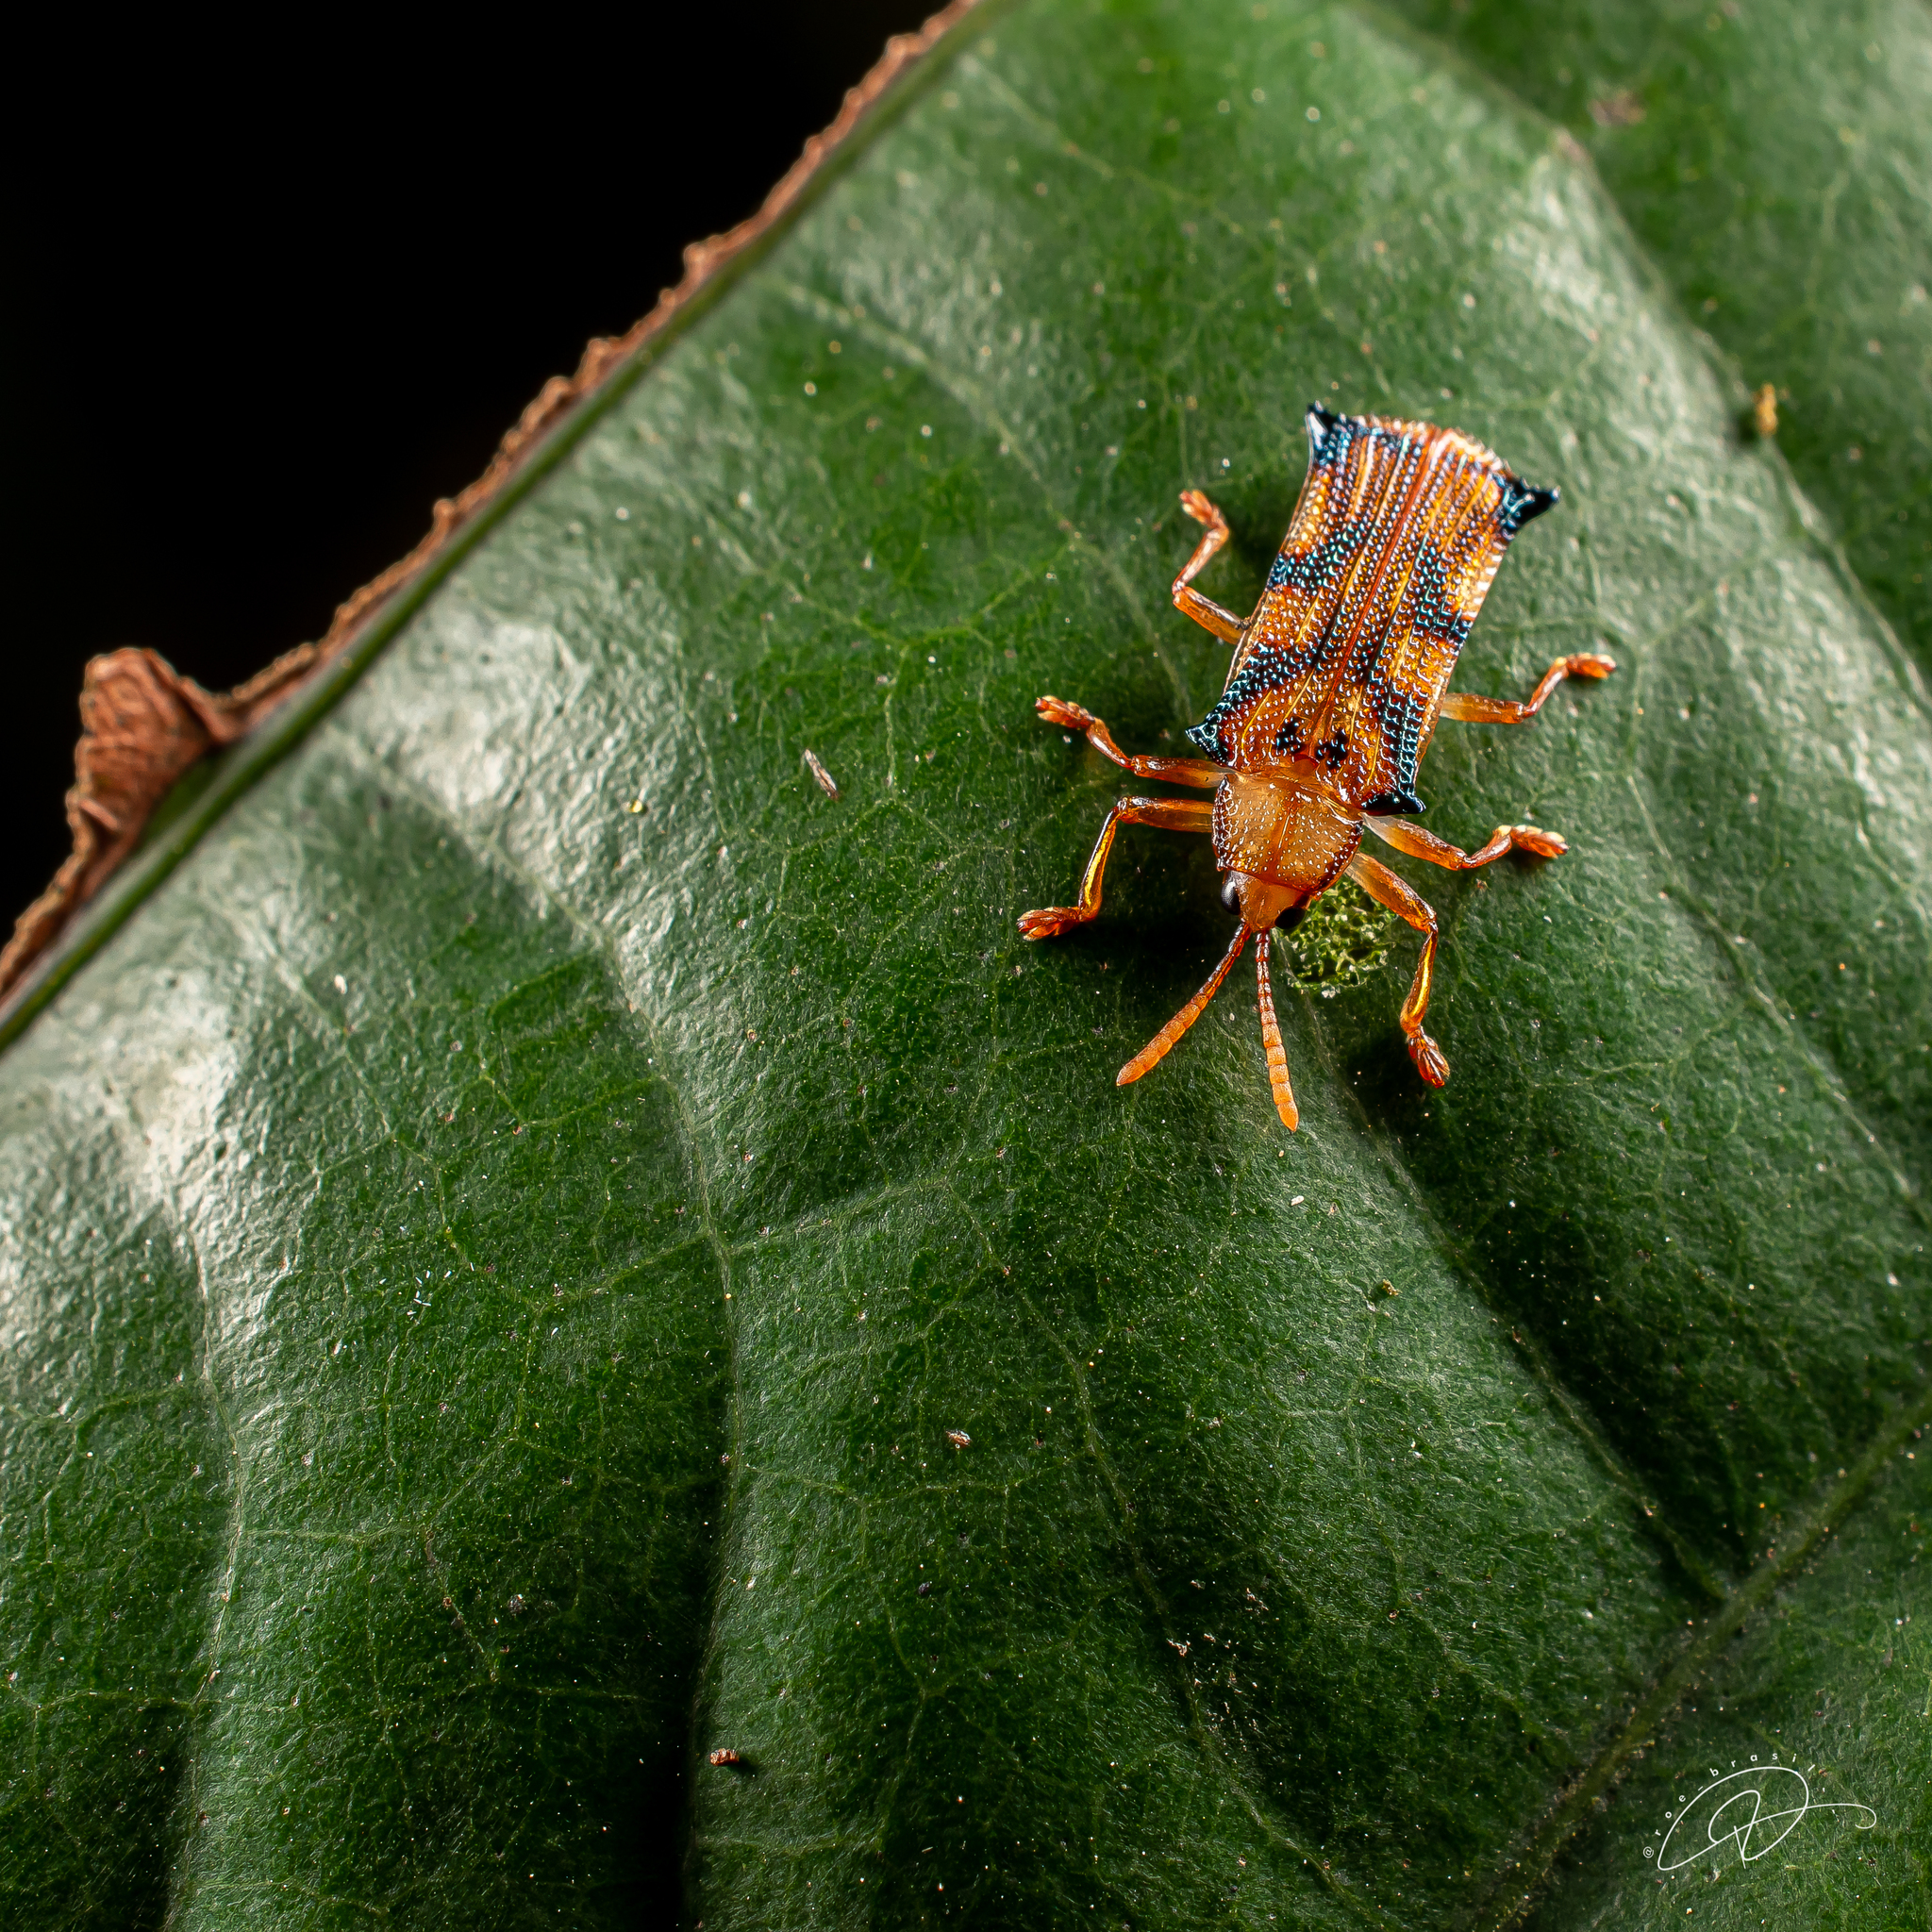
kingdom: Animalia
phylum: Arthropoda
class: Insecta
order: Coleoptera
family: Chrysomelidae
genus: Stethispa
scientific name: Stethispa rudgeana
